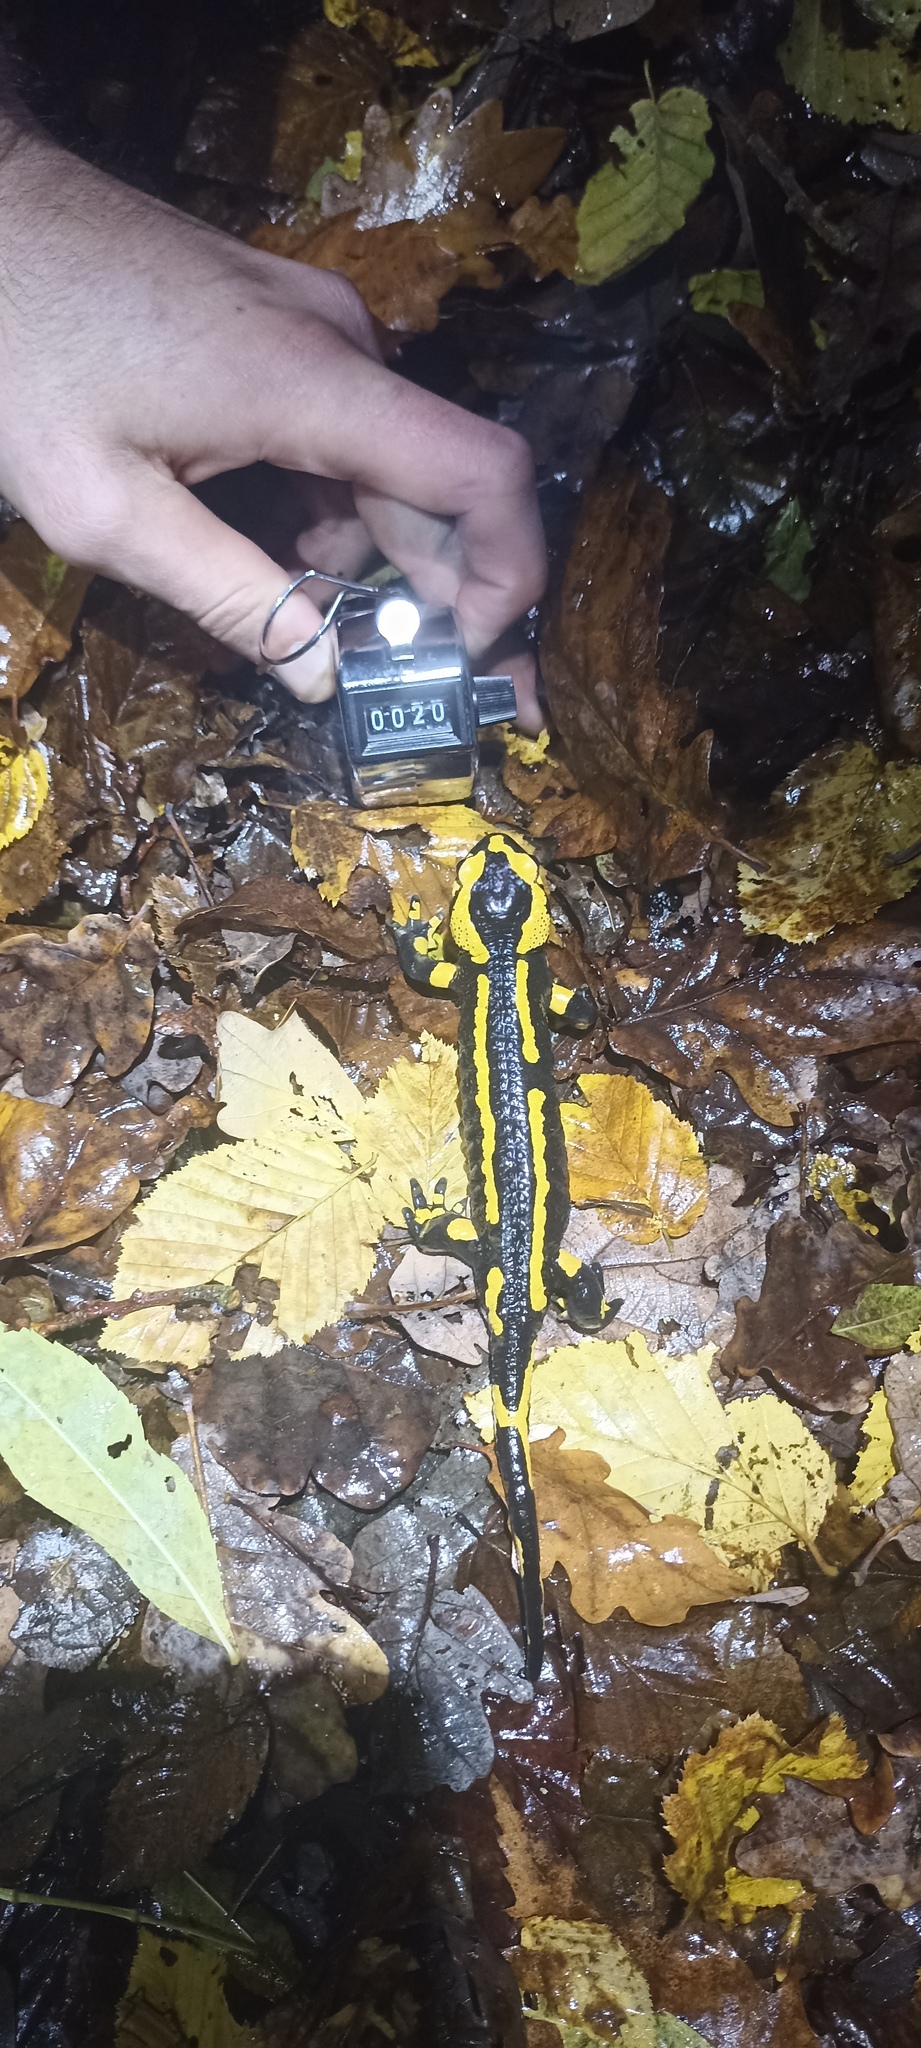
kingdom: Animalia
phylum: Chordata
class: Amphibia
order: Caudata
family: Salamandridae
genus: Salamandra
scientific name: Salamandra salamandra
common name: Fire salamander
